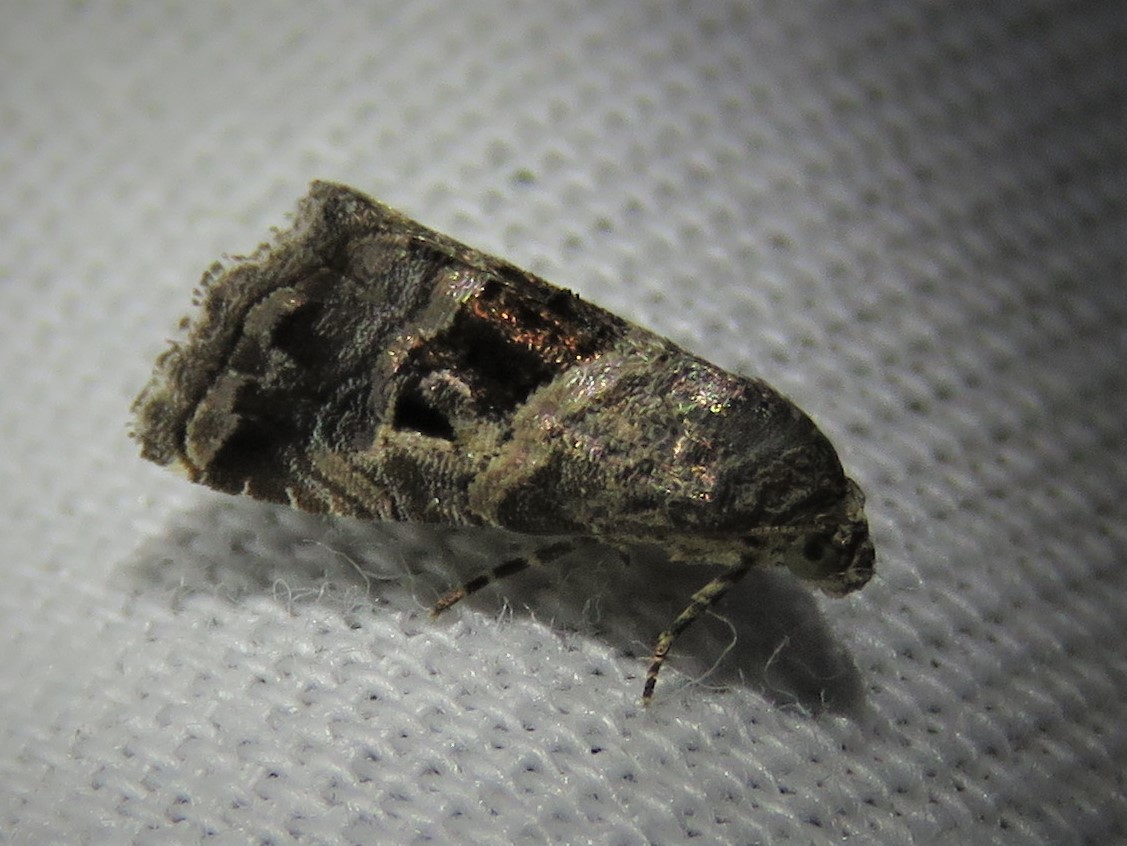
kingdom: Animalia
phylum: Arthropoda
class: Insecta
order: Lepidoptera
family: Noctuidae
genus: Tripudia
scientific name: Tripudia quadrifera
